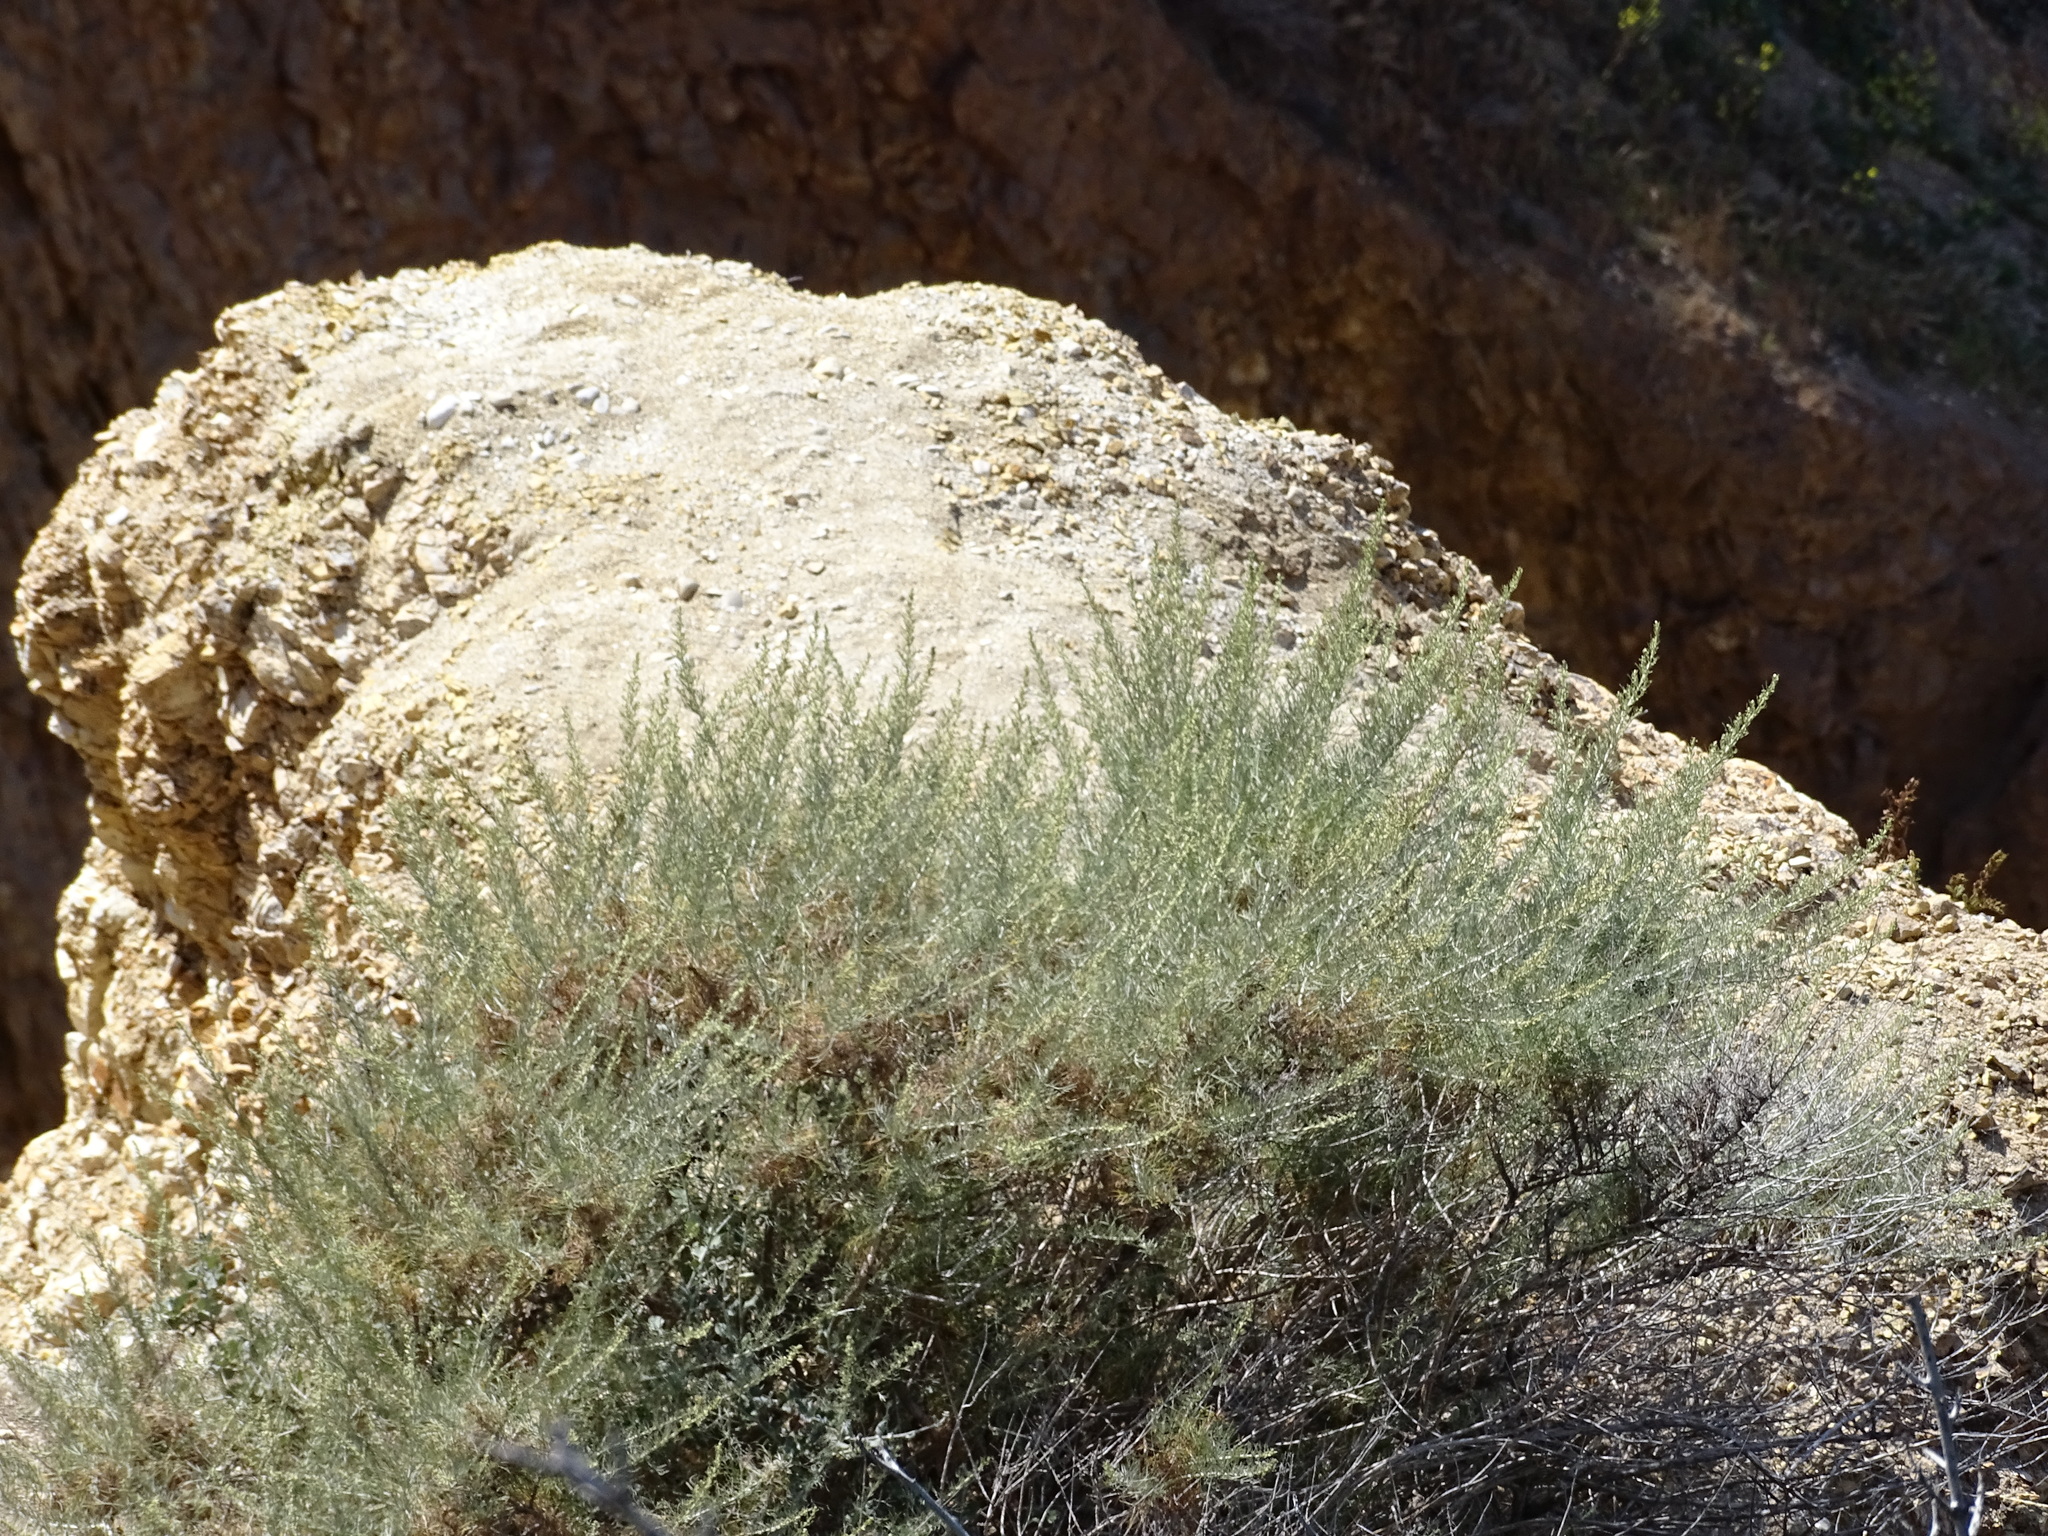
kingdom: Plantae
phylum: Tracheophyta
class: Magnoliopsida
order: Asterales
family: Asteraceae
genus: Artemisia
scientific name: Artemisia californica
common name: California sagebrush
